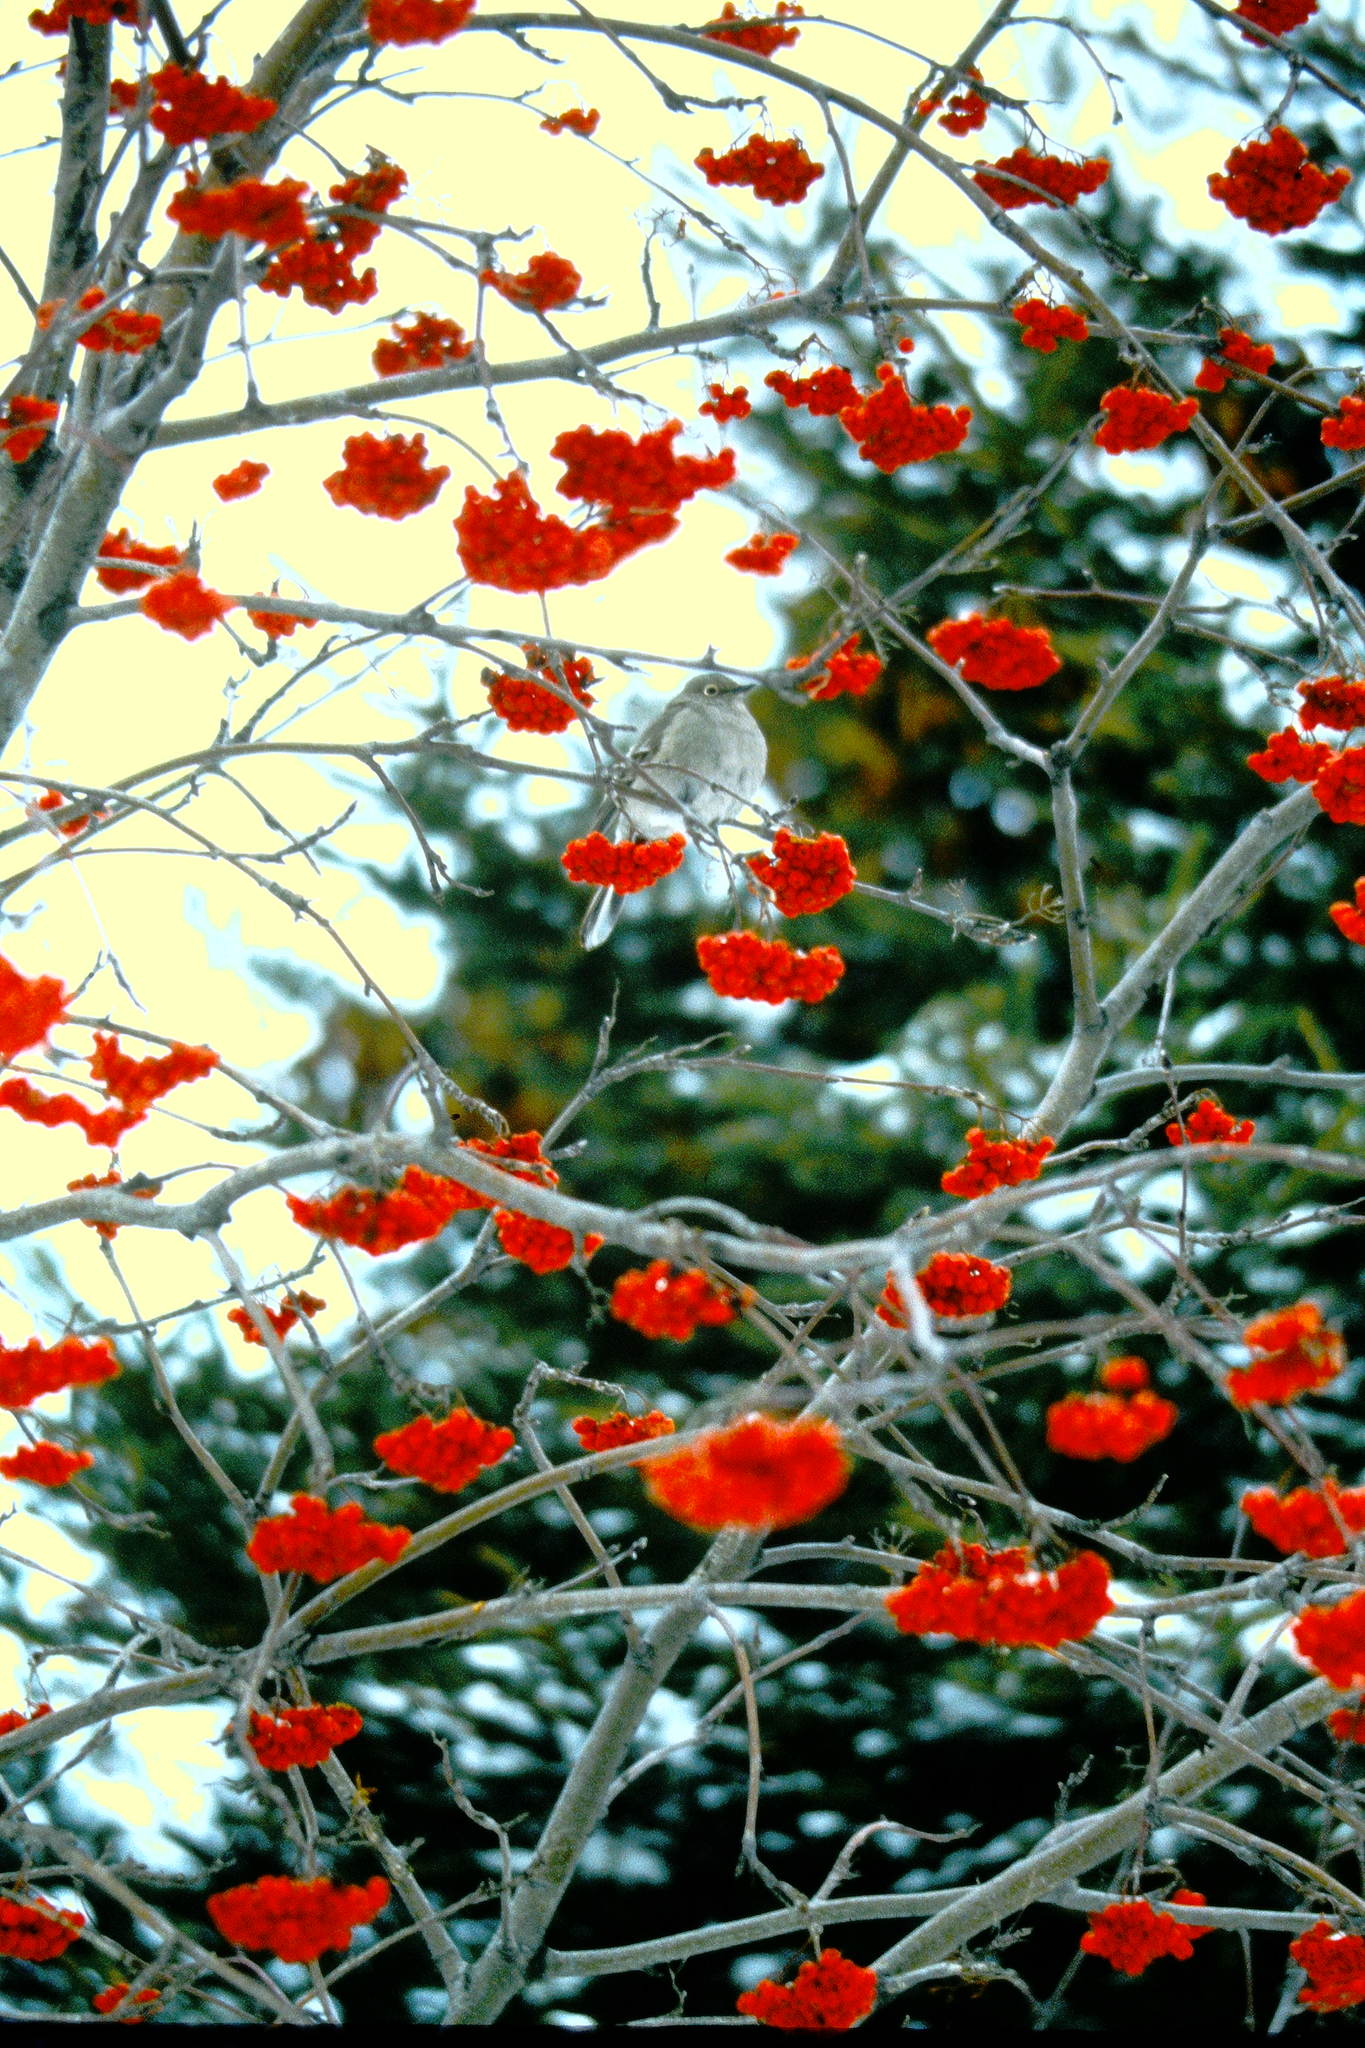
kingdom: Animalia
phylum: Chordata
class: Aves
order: Passeriformes
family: Turdidae
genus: Myadestes
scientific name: Myadestes townsendi
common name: Townsend's solitaire
